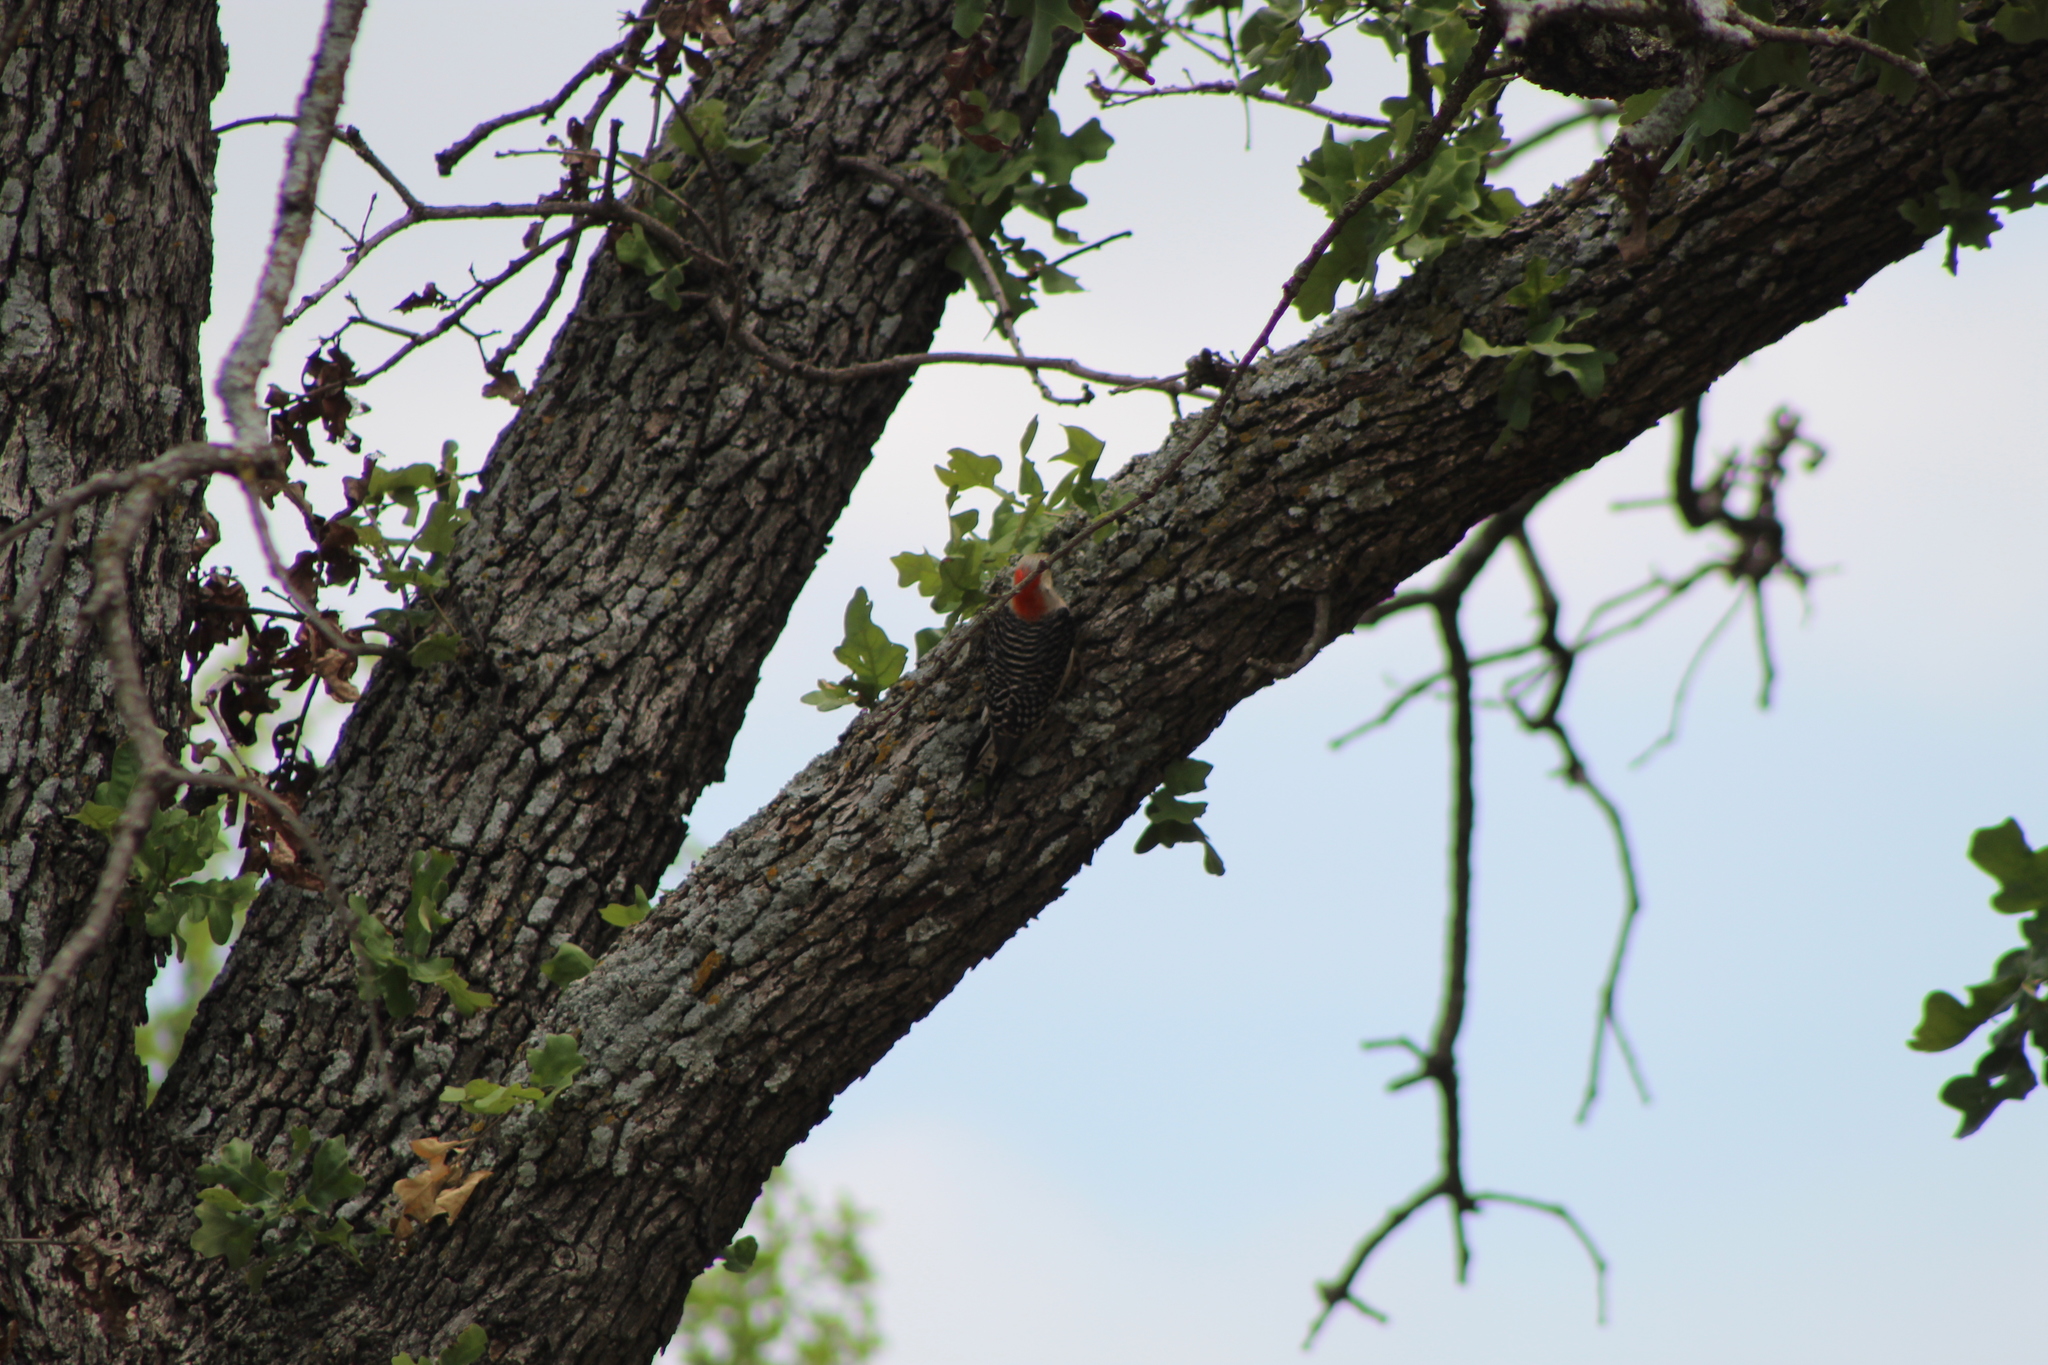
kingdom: Animalia
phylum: Chordata
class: Aves
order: Piciformes
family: Picidae
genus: Melanerpes
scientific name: Melanerpes carolinus
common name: Red-bellied woodpecker
